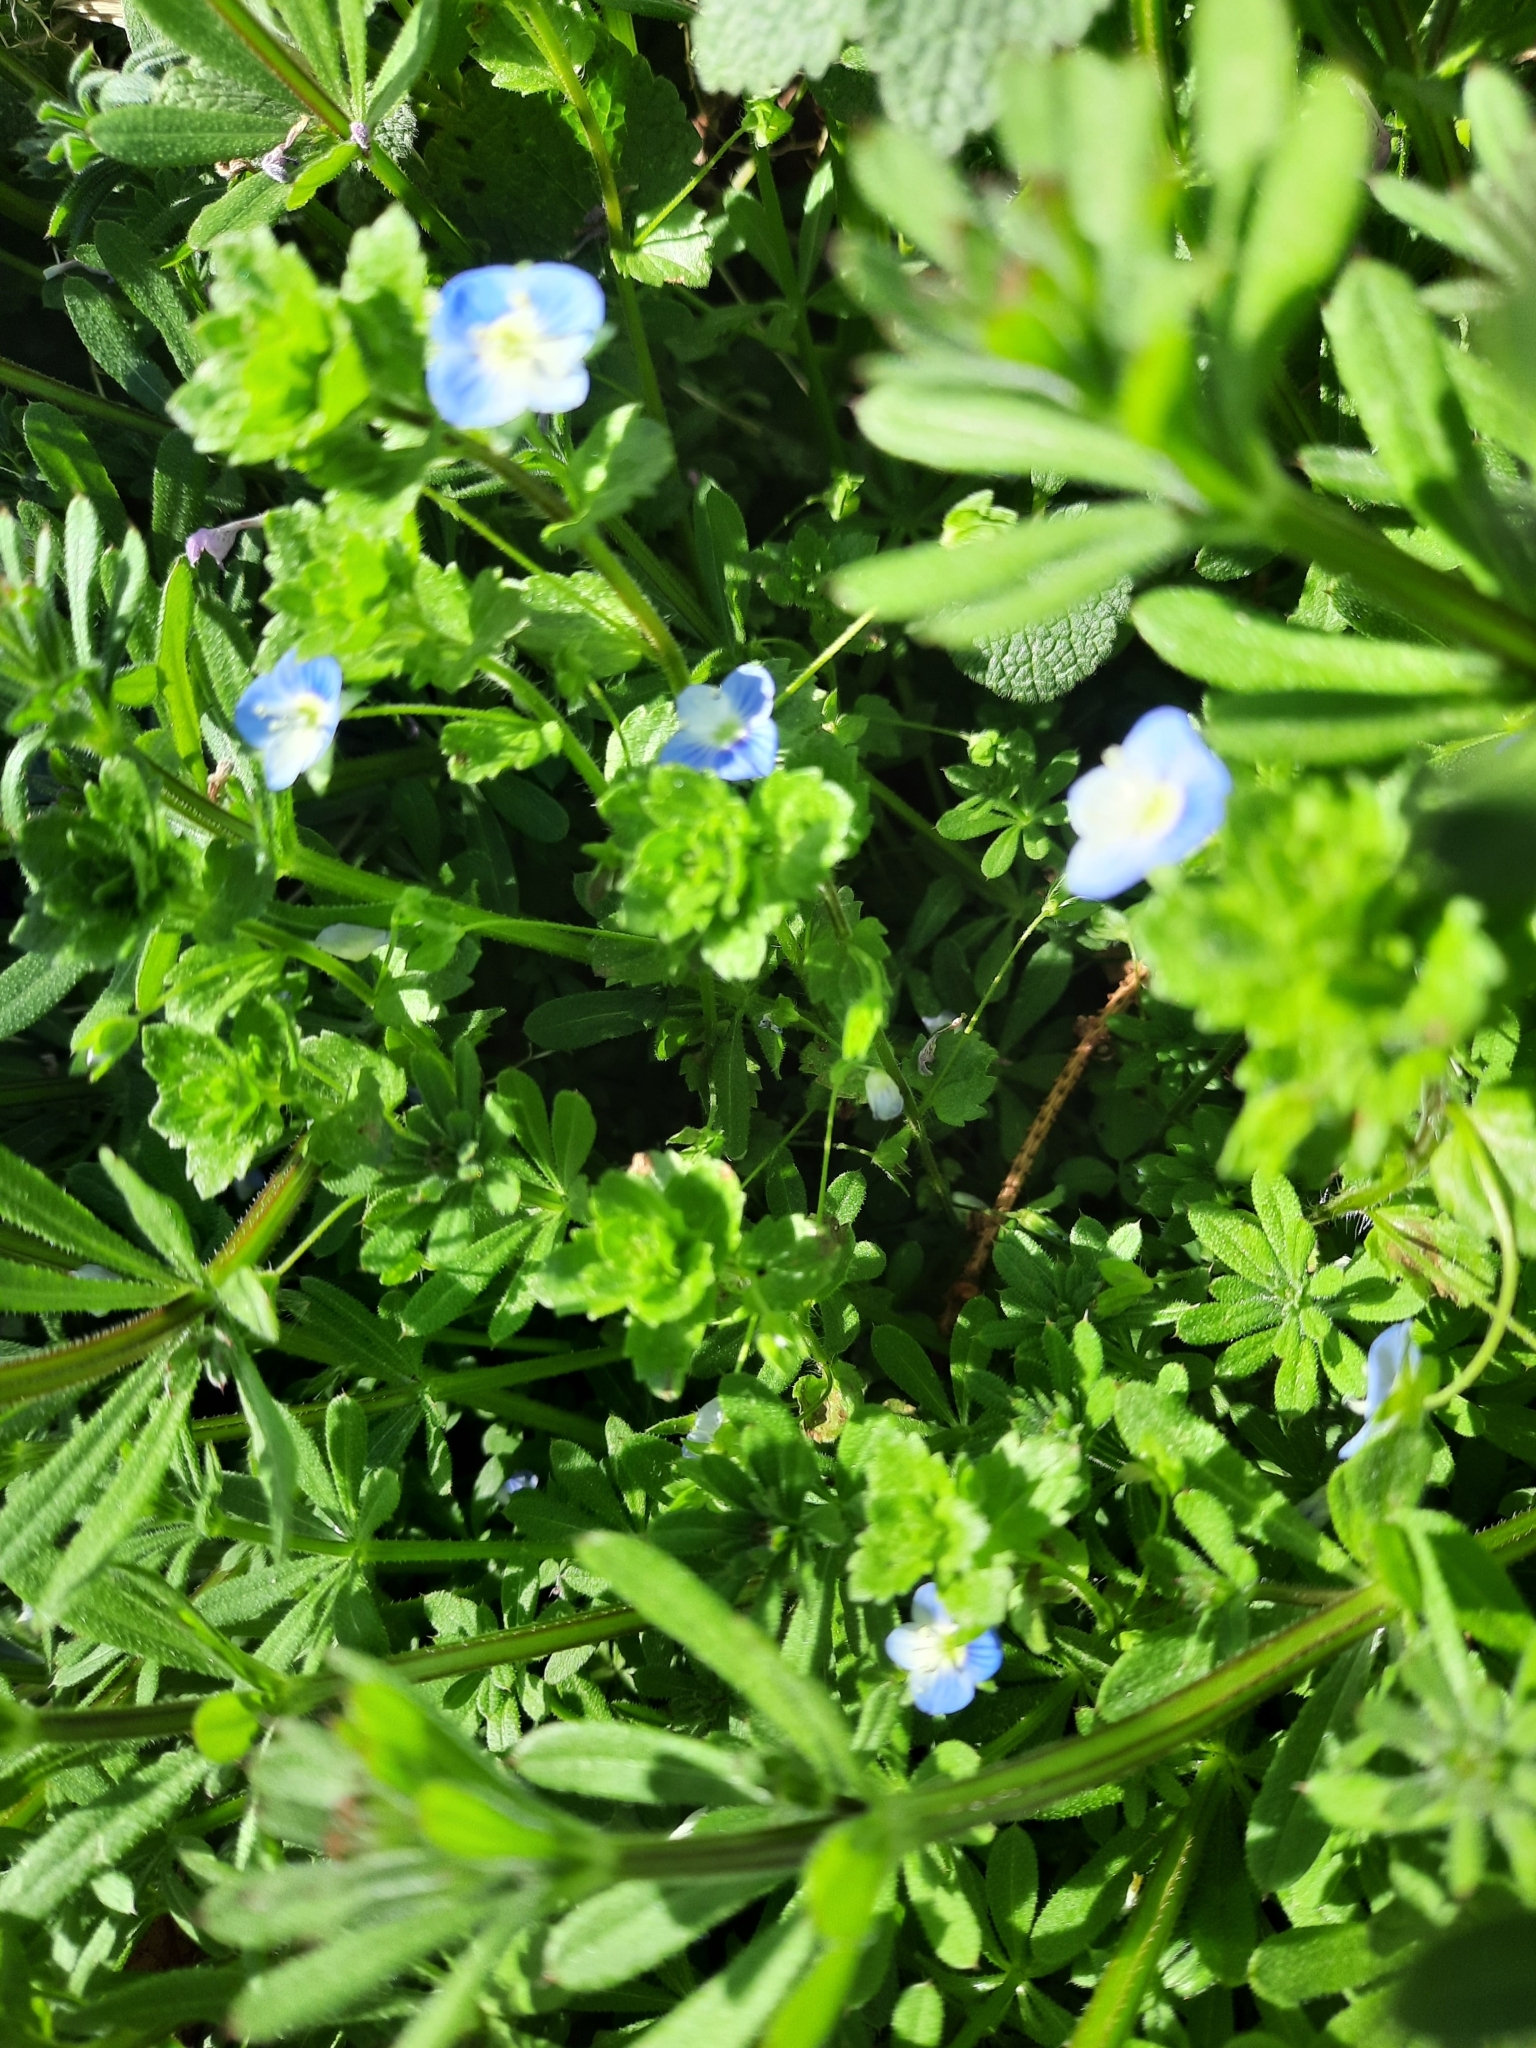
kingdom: Plantae
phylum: Tracheophyta
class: Magnoliopsida
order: Lamiales
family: Plantaginaceae
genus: Veronica
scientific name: Veronica persica
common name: Common field-speedwell
